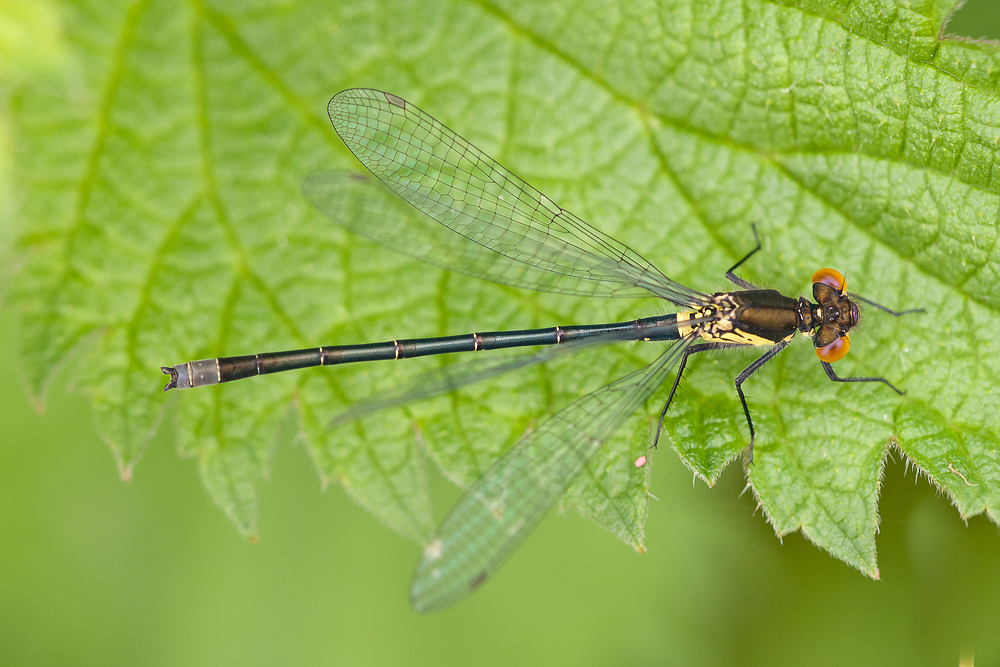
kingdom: Animalia
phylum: Arthropoda
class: Insecta
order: Odonata
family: Coenagrionidae
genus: Erythromma
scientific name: Erythromma najas
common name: Red-eyed damselfly
